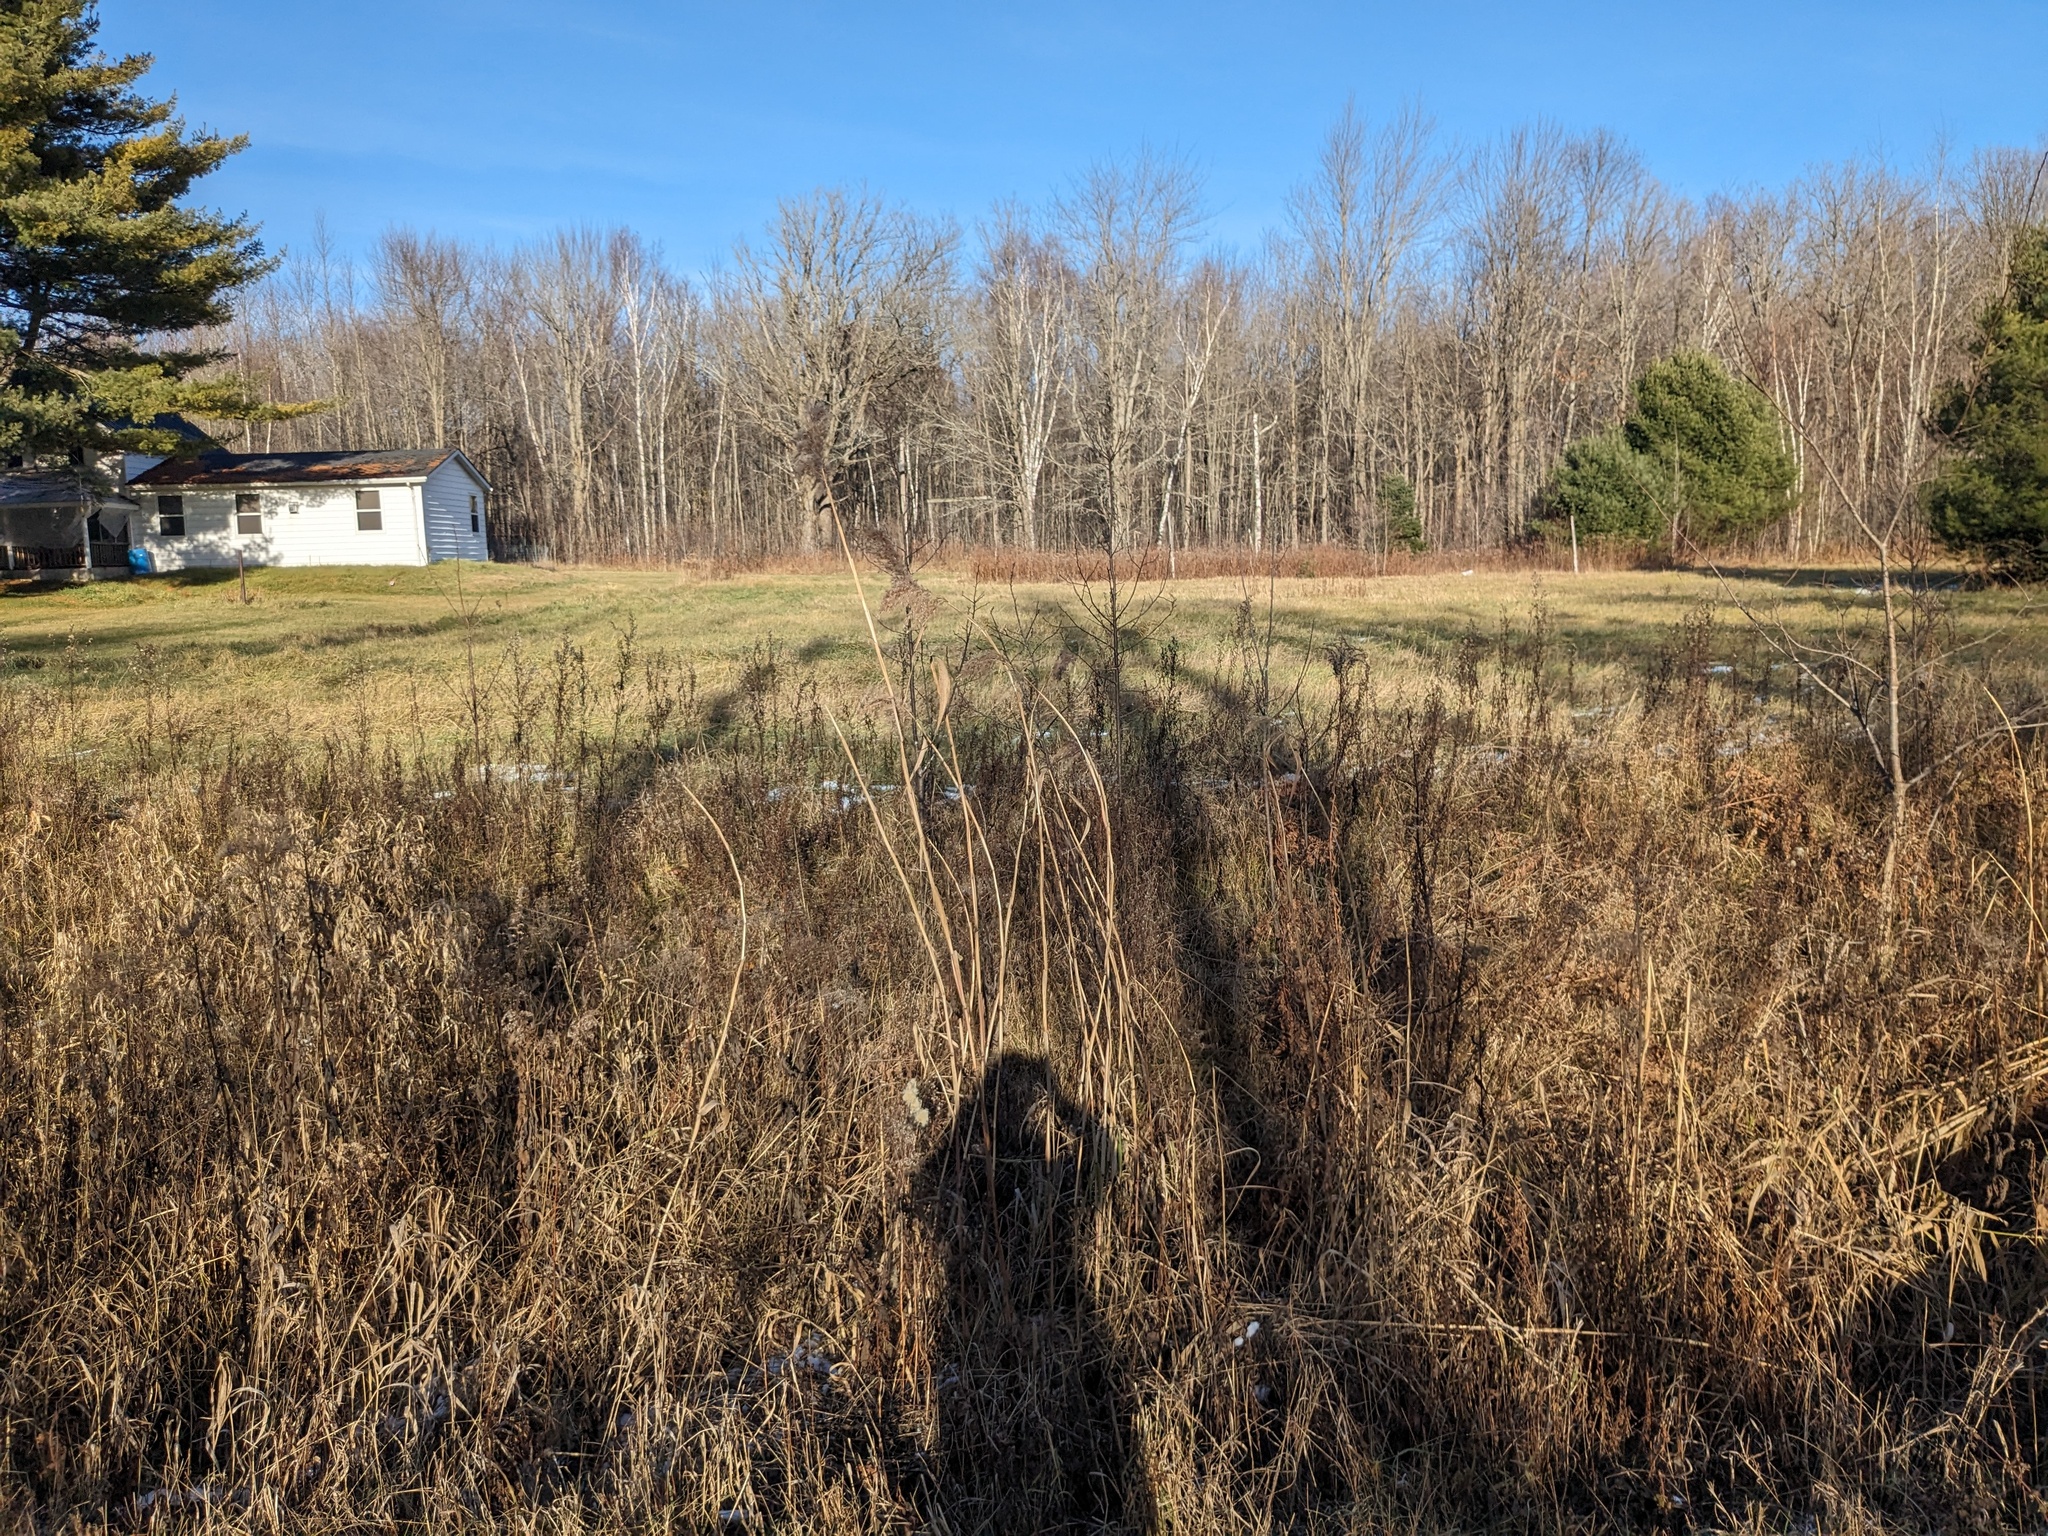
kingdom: Plantae
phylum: Tracheophyta
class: Liliopsida
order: Poales
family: Poaceae
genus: Phragmites
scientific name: Phragmites australis
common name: Common reed
